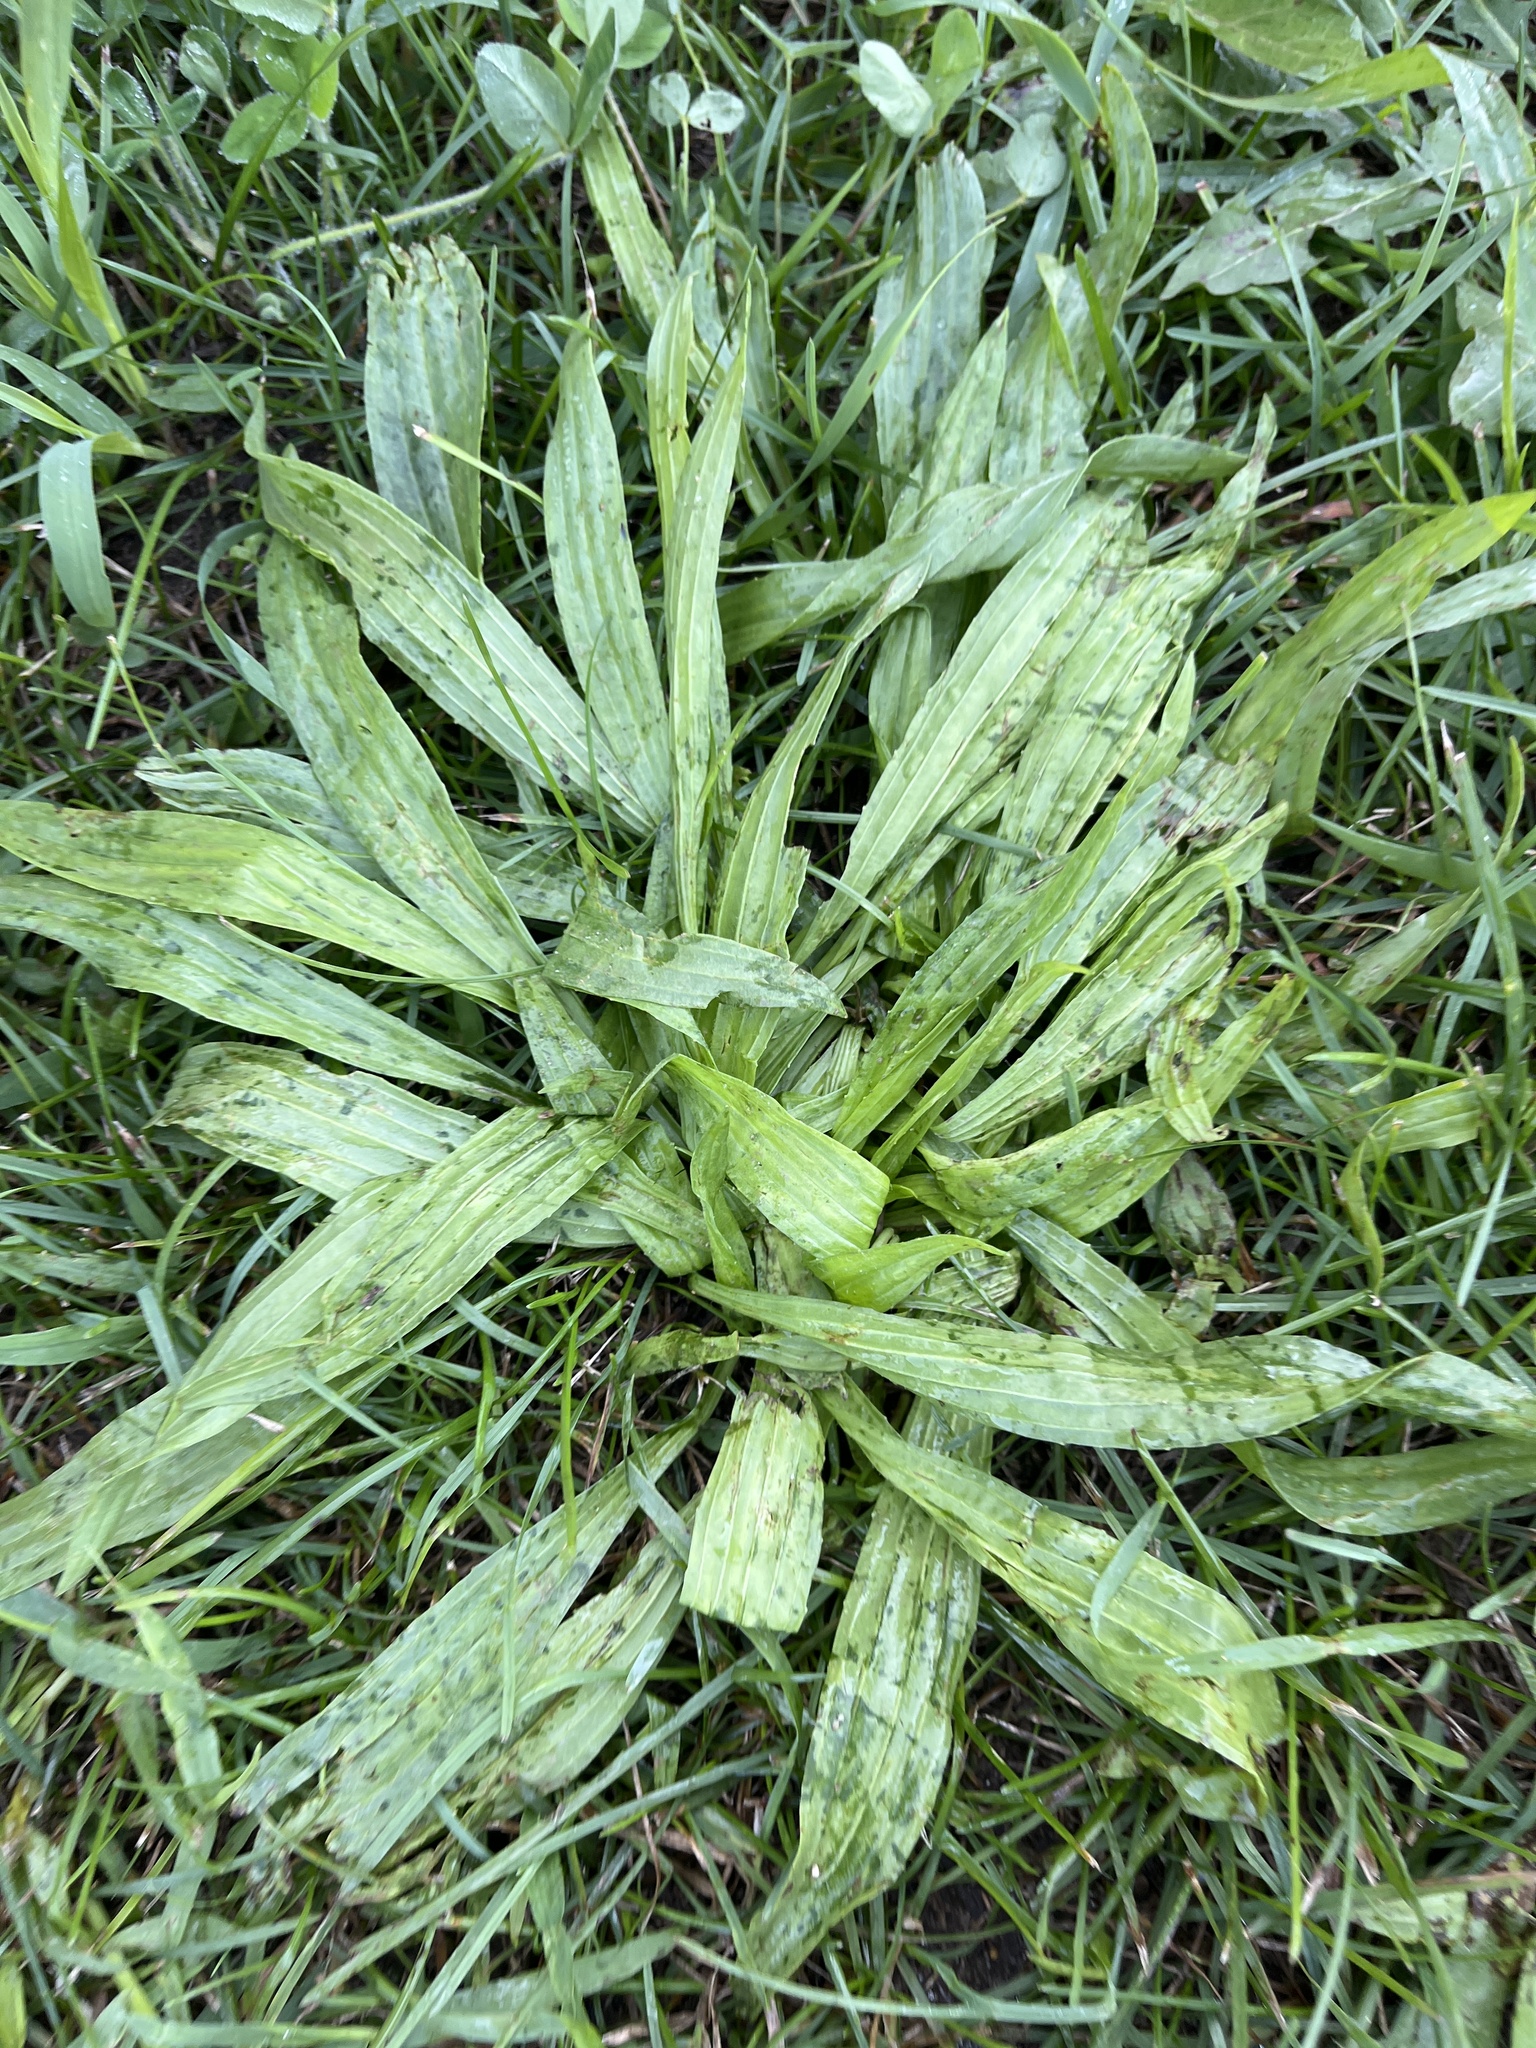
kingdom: Plantae
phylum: Tracheophyta
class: Magnoliopsida
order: Lamiales
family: Plantaginaceae
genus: Plantago
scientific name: Plantago lanceolata
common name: Ribwort plantain
